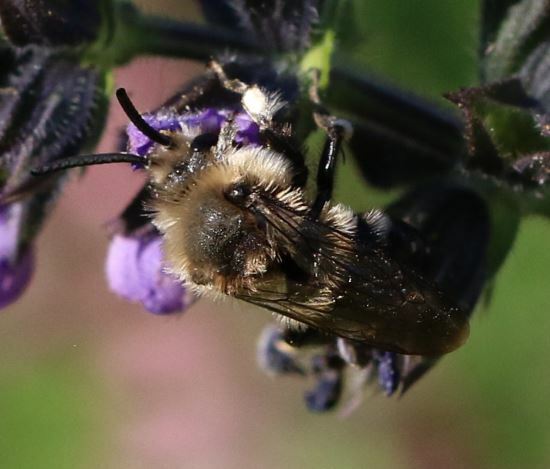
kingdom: Animalia
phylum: Arthropoda
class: Insecta
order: Hymenoptera
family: Apidae
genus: Melecta
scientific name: Melecta albifrons
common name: Common mourning bee
